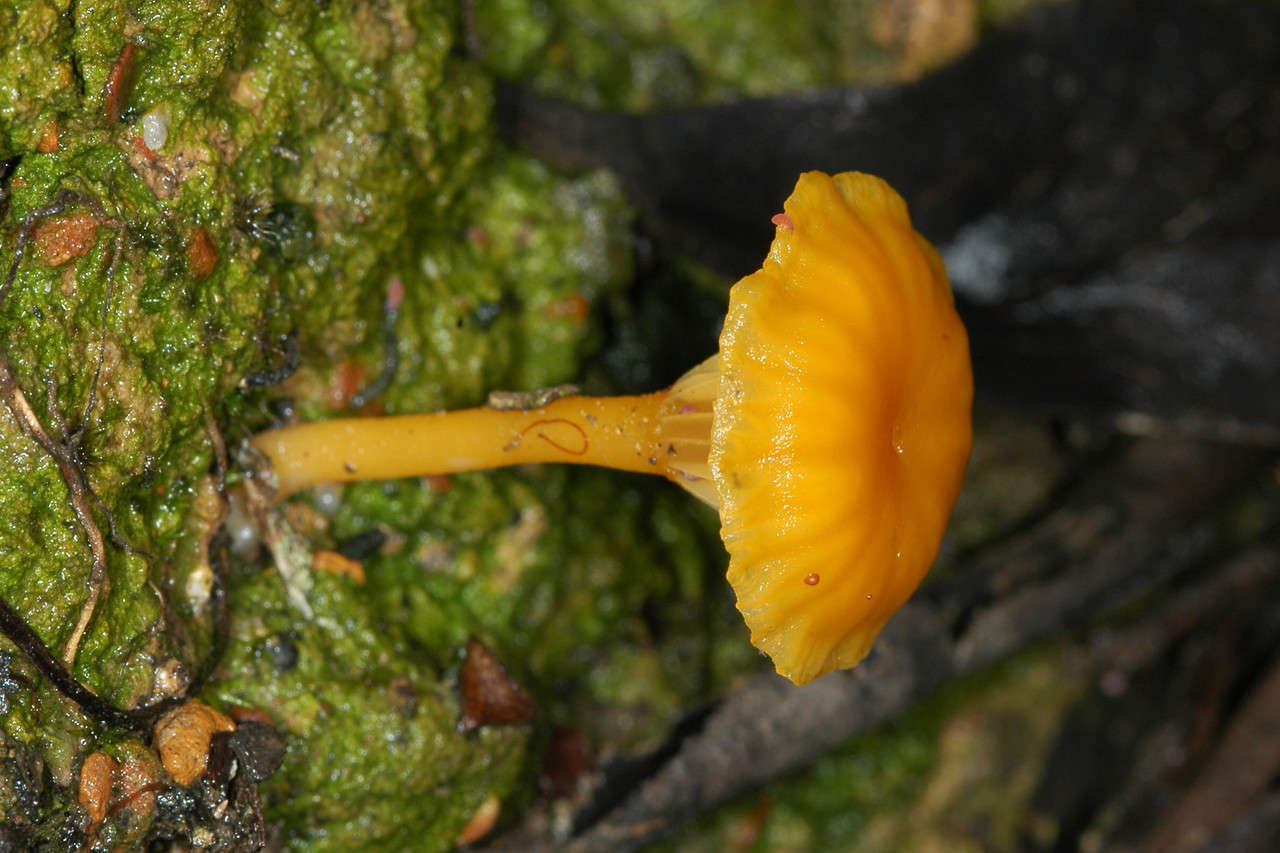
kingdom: Fungi
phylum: Basidiomycota
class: Agaricomycetes
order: Agaricales
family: Hygrophoraceae
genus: Lichenomphalia
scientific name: Lichenomphalia chromacea
